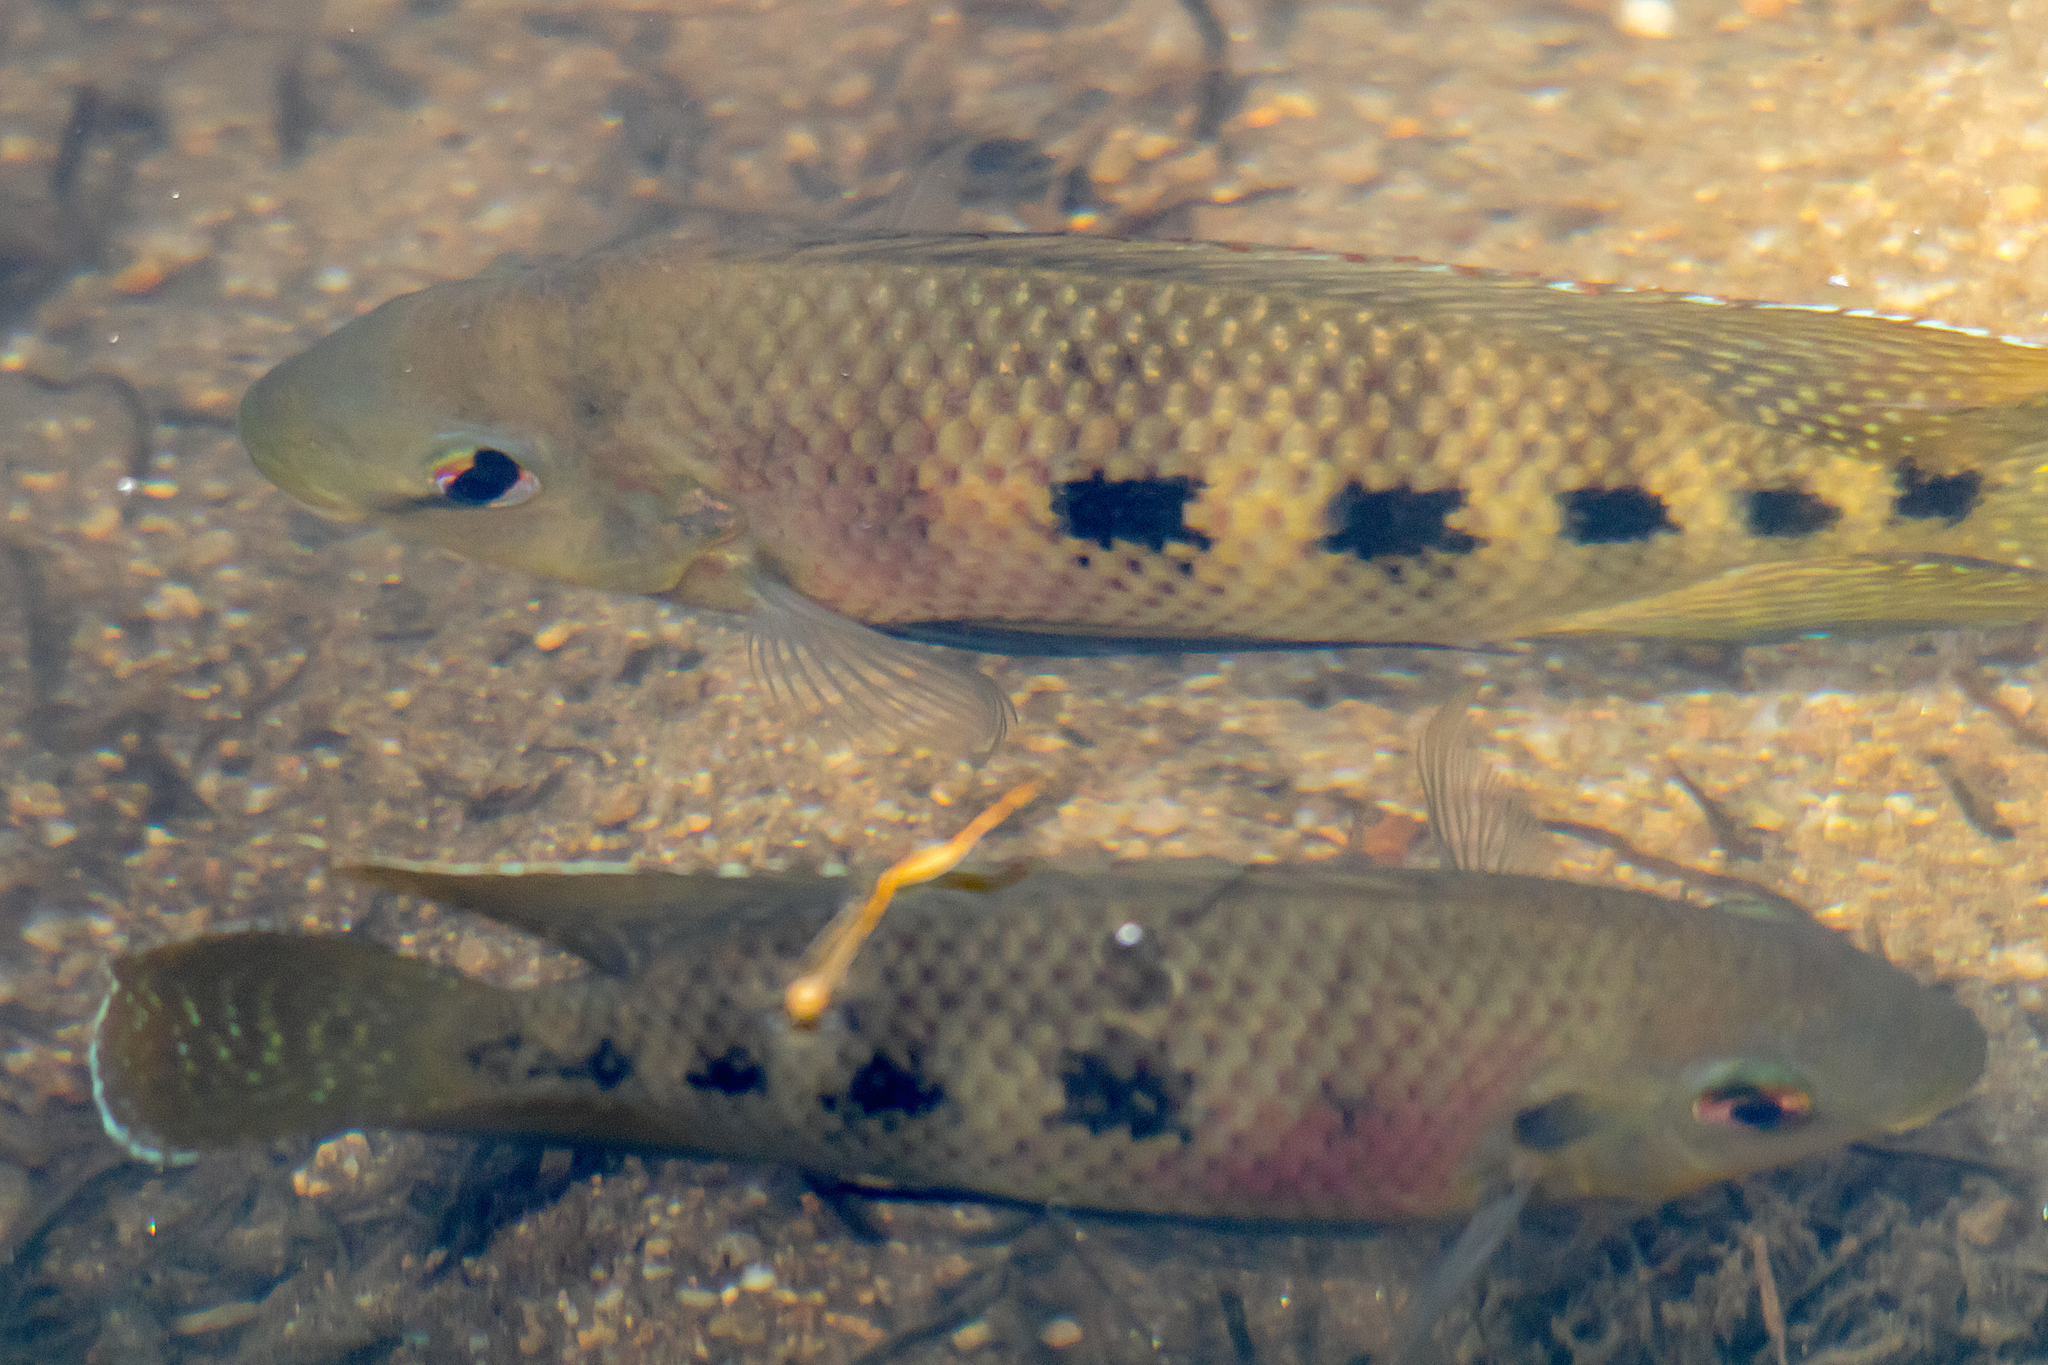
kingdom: Animalia
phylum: Chordata
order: Perciformes
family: Cichlidae
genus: Pelmatolapia
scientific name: Pelmatolapia mariae
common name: Spotted tilapia
